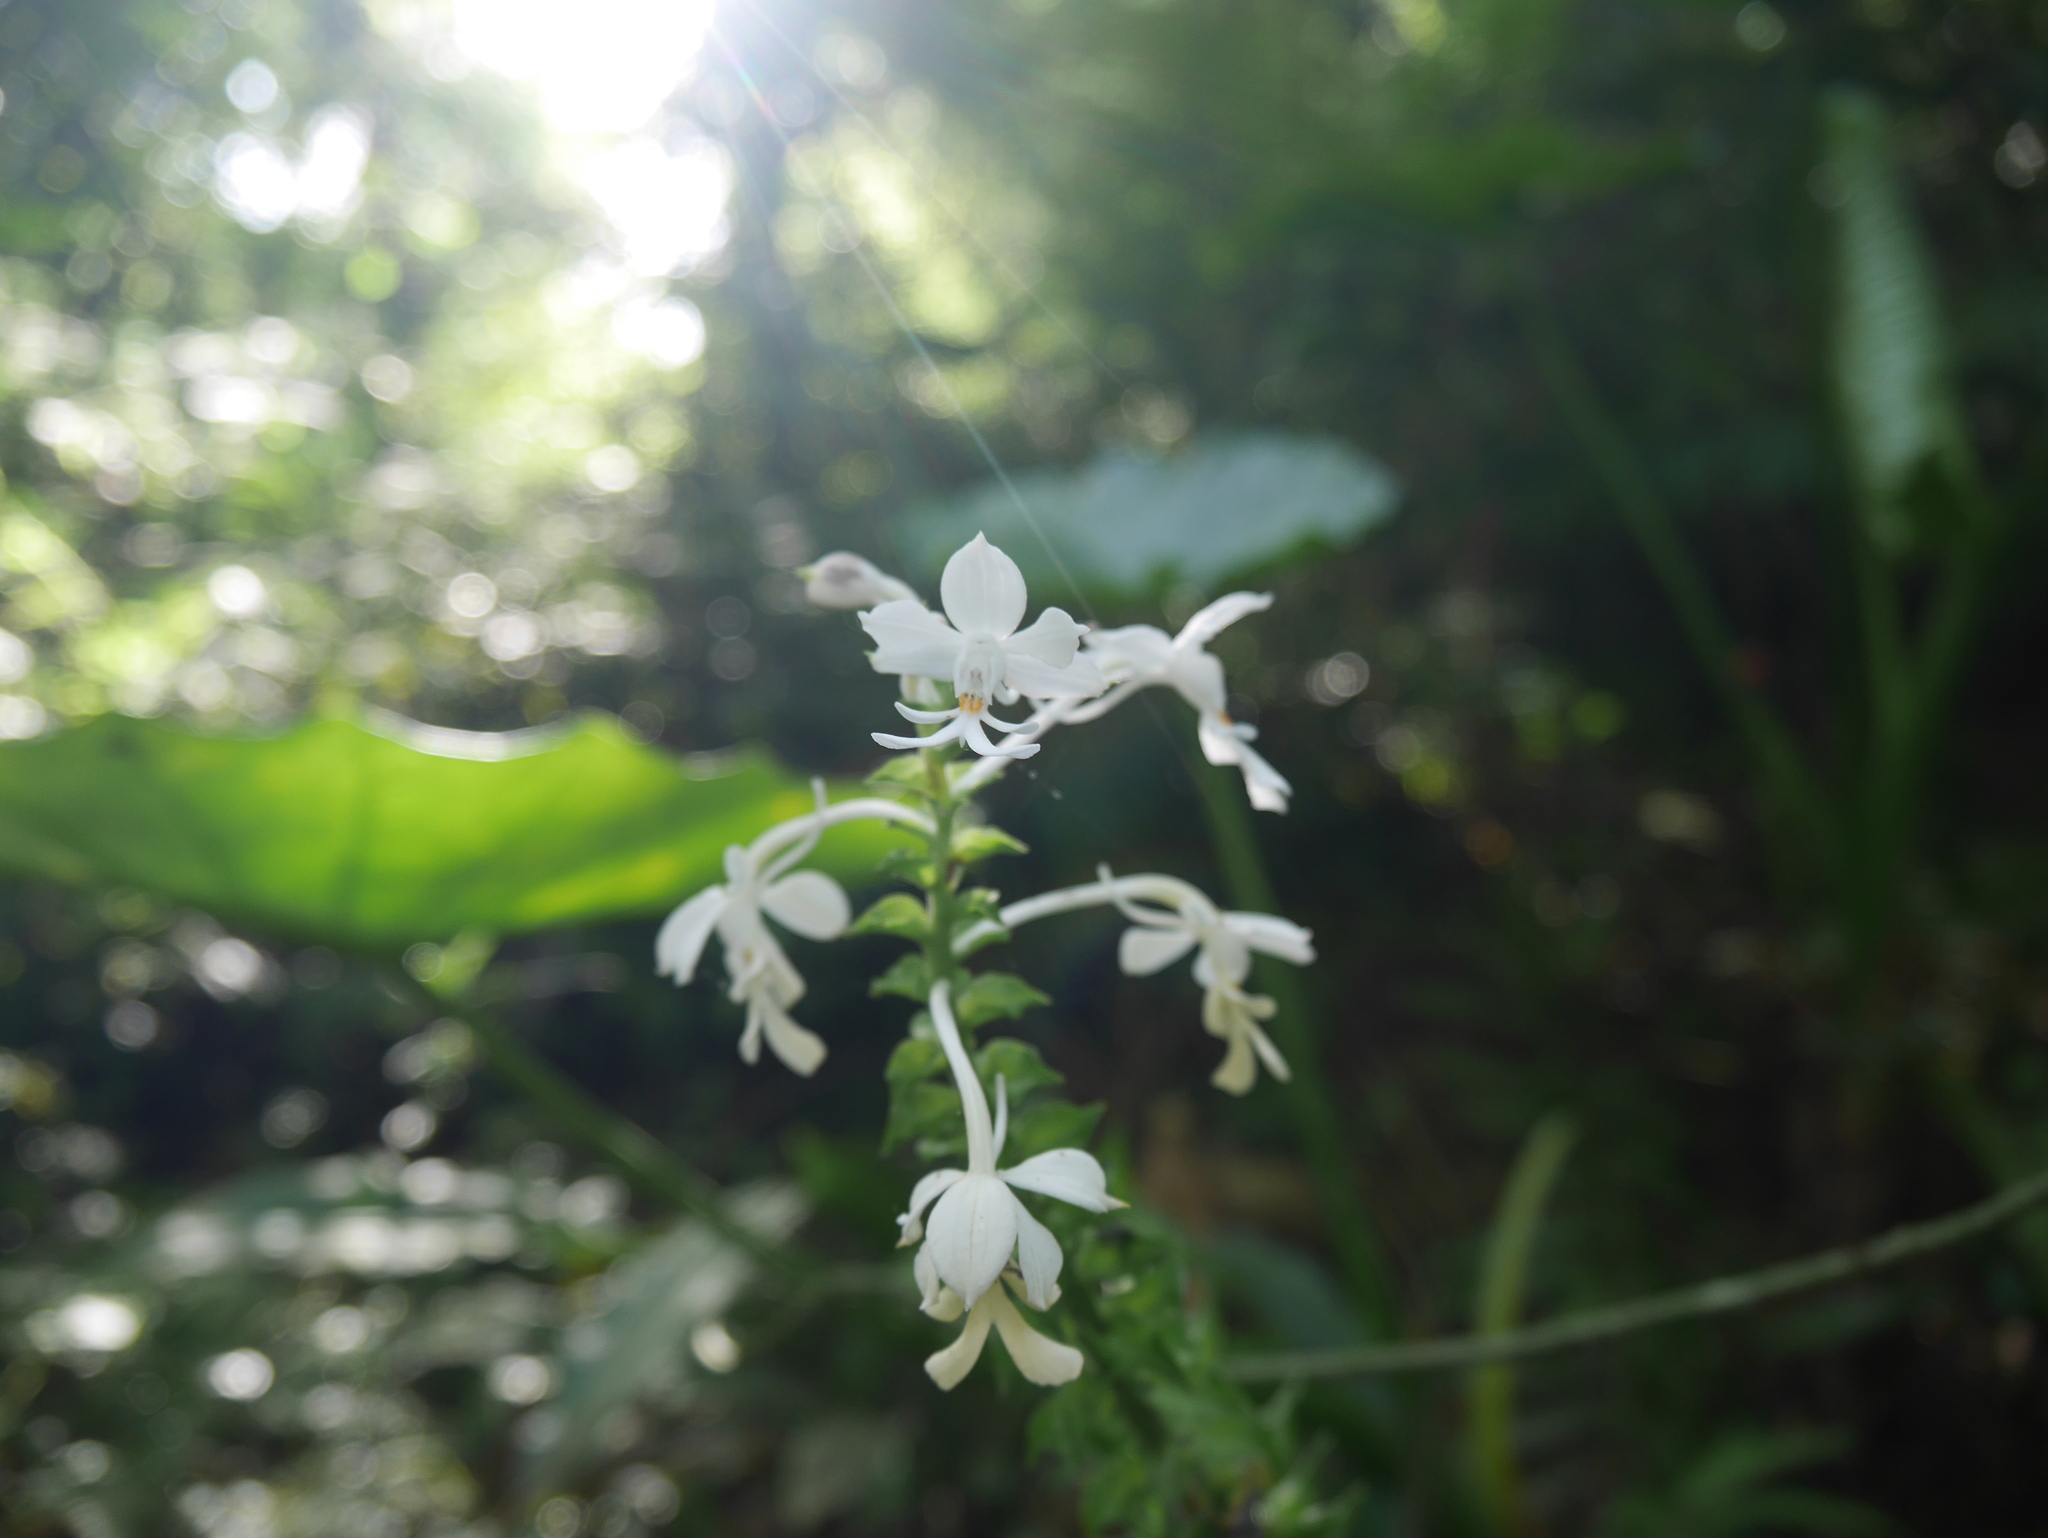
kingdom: Plantae
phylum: Tracheophyta
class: Liliopsida
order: Asparagales
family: Orchidaceae
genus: Calanthe
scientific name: Calanthe triplicata
